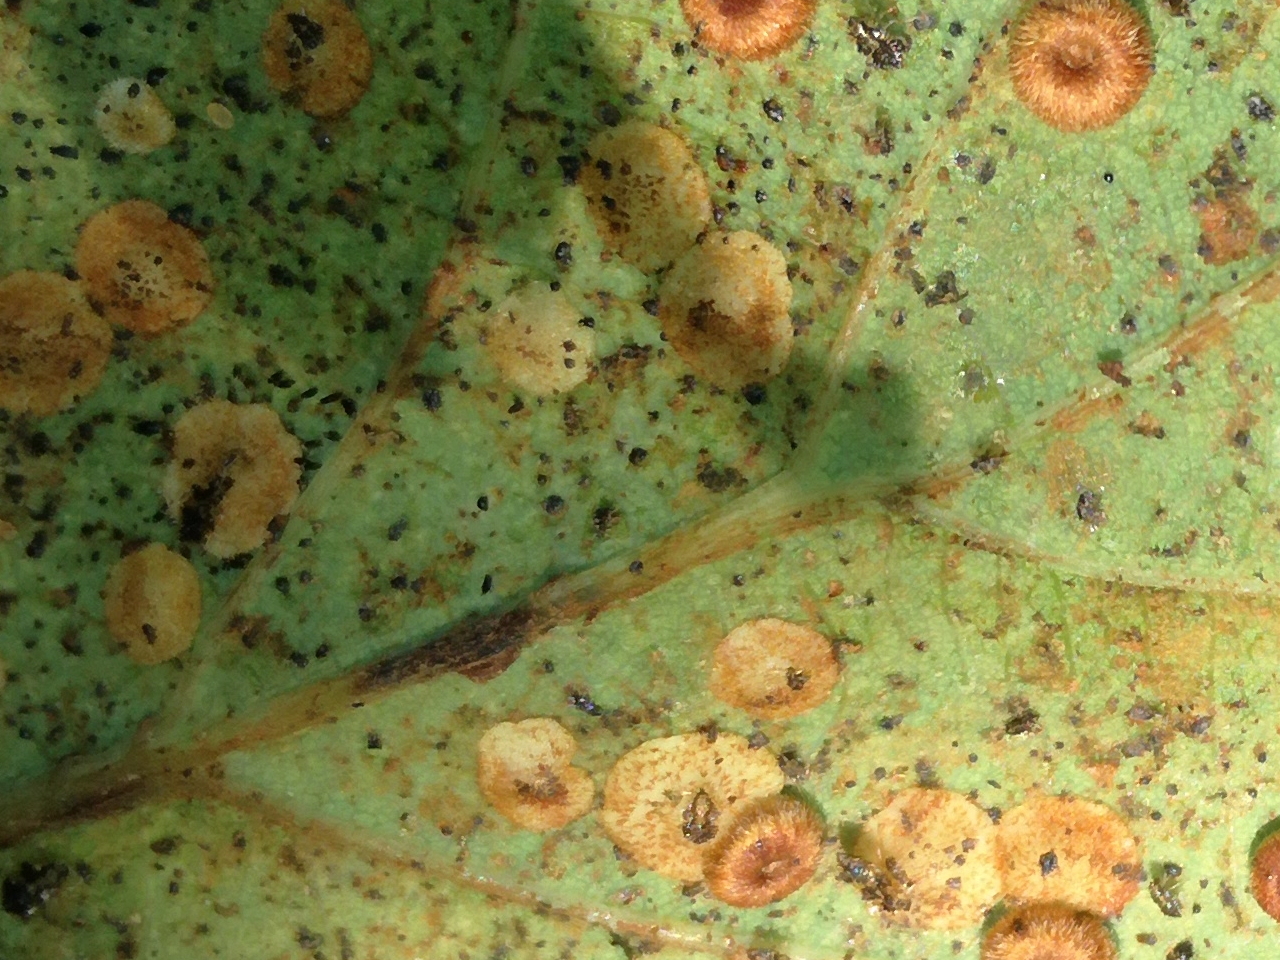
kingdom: Animalia
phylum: Arthropoda
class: Insecta
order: Hymenoptera
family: Cynipidae
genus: Neuroterus
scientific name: Neuroterus quercusbaccarum
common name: Common spangle gall
